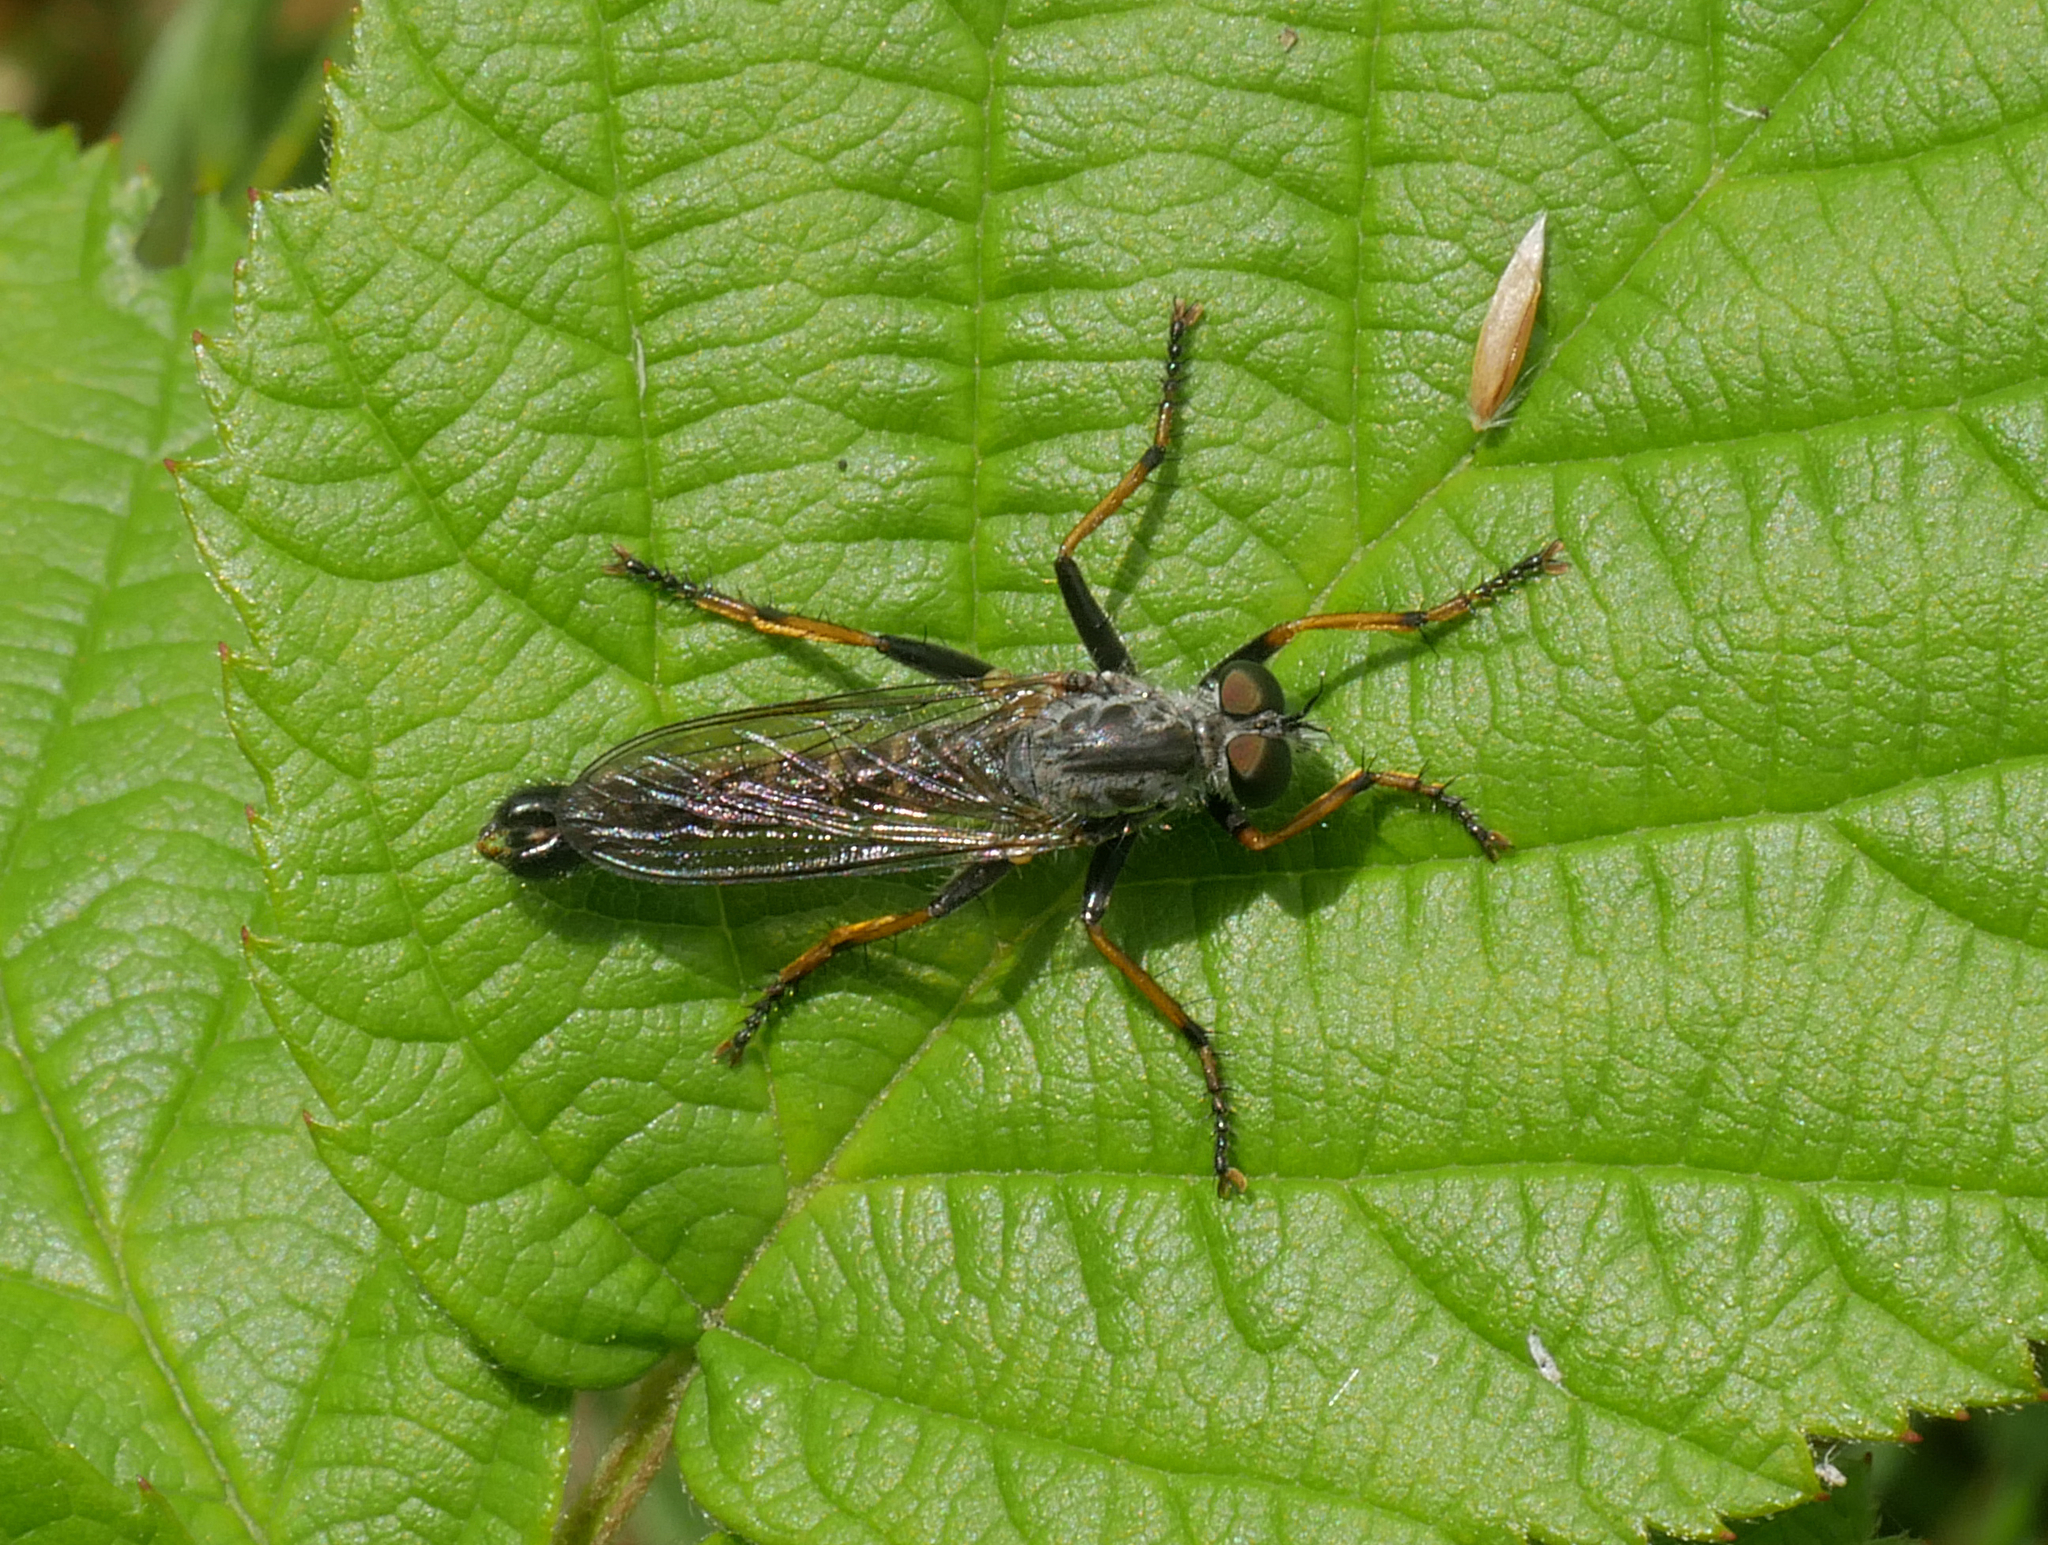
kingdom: Animalia
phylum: Arthropoda
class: Insecta
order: Diptera
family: Asilidae
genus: Paritamus
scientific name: Paritamus geniculatus
